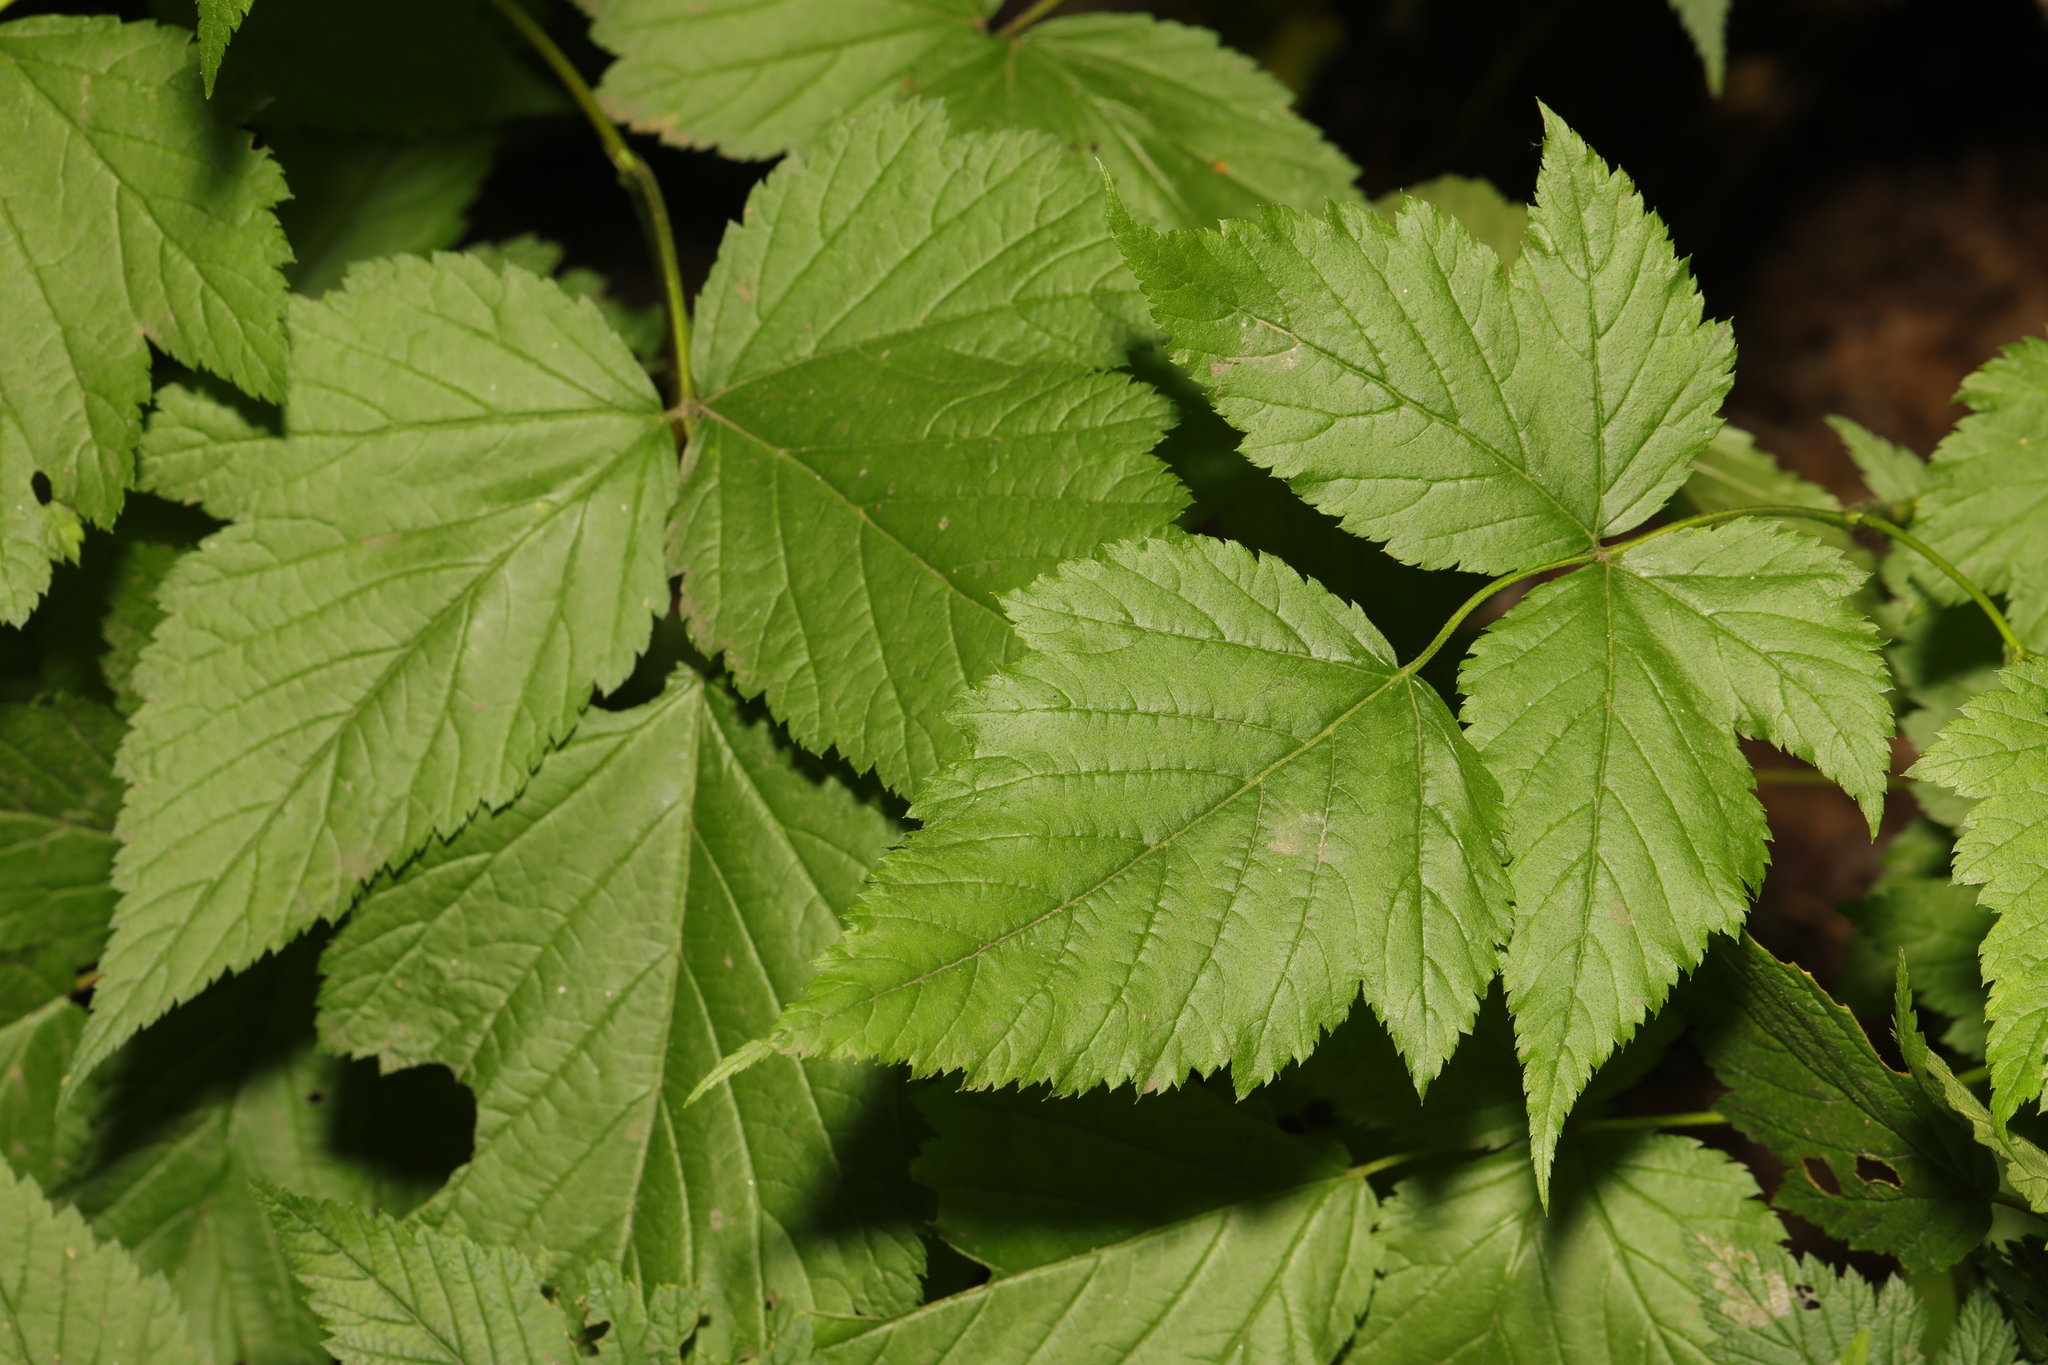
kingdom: Plantae
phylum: Tracheophyta
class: Magnoliopsida
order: Rosales
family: Rosaceae
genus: Rubus
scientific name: Rubus spectabilis
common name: Salmonberry
